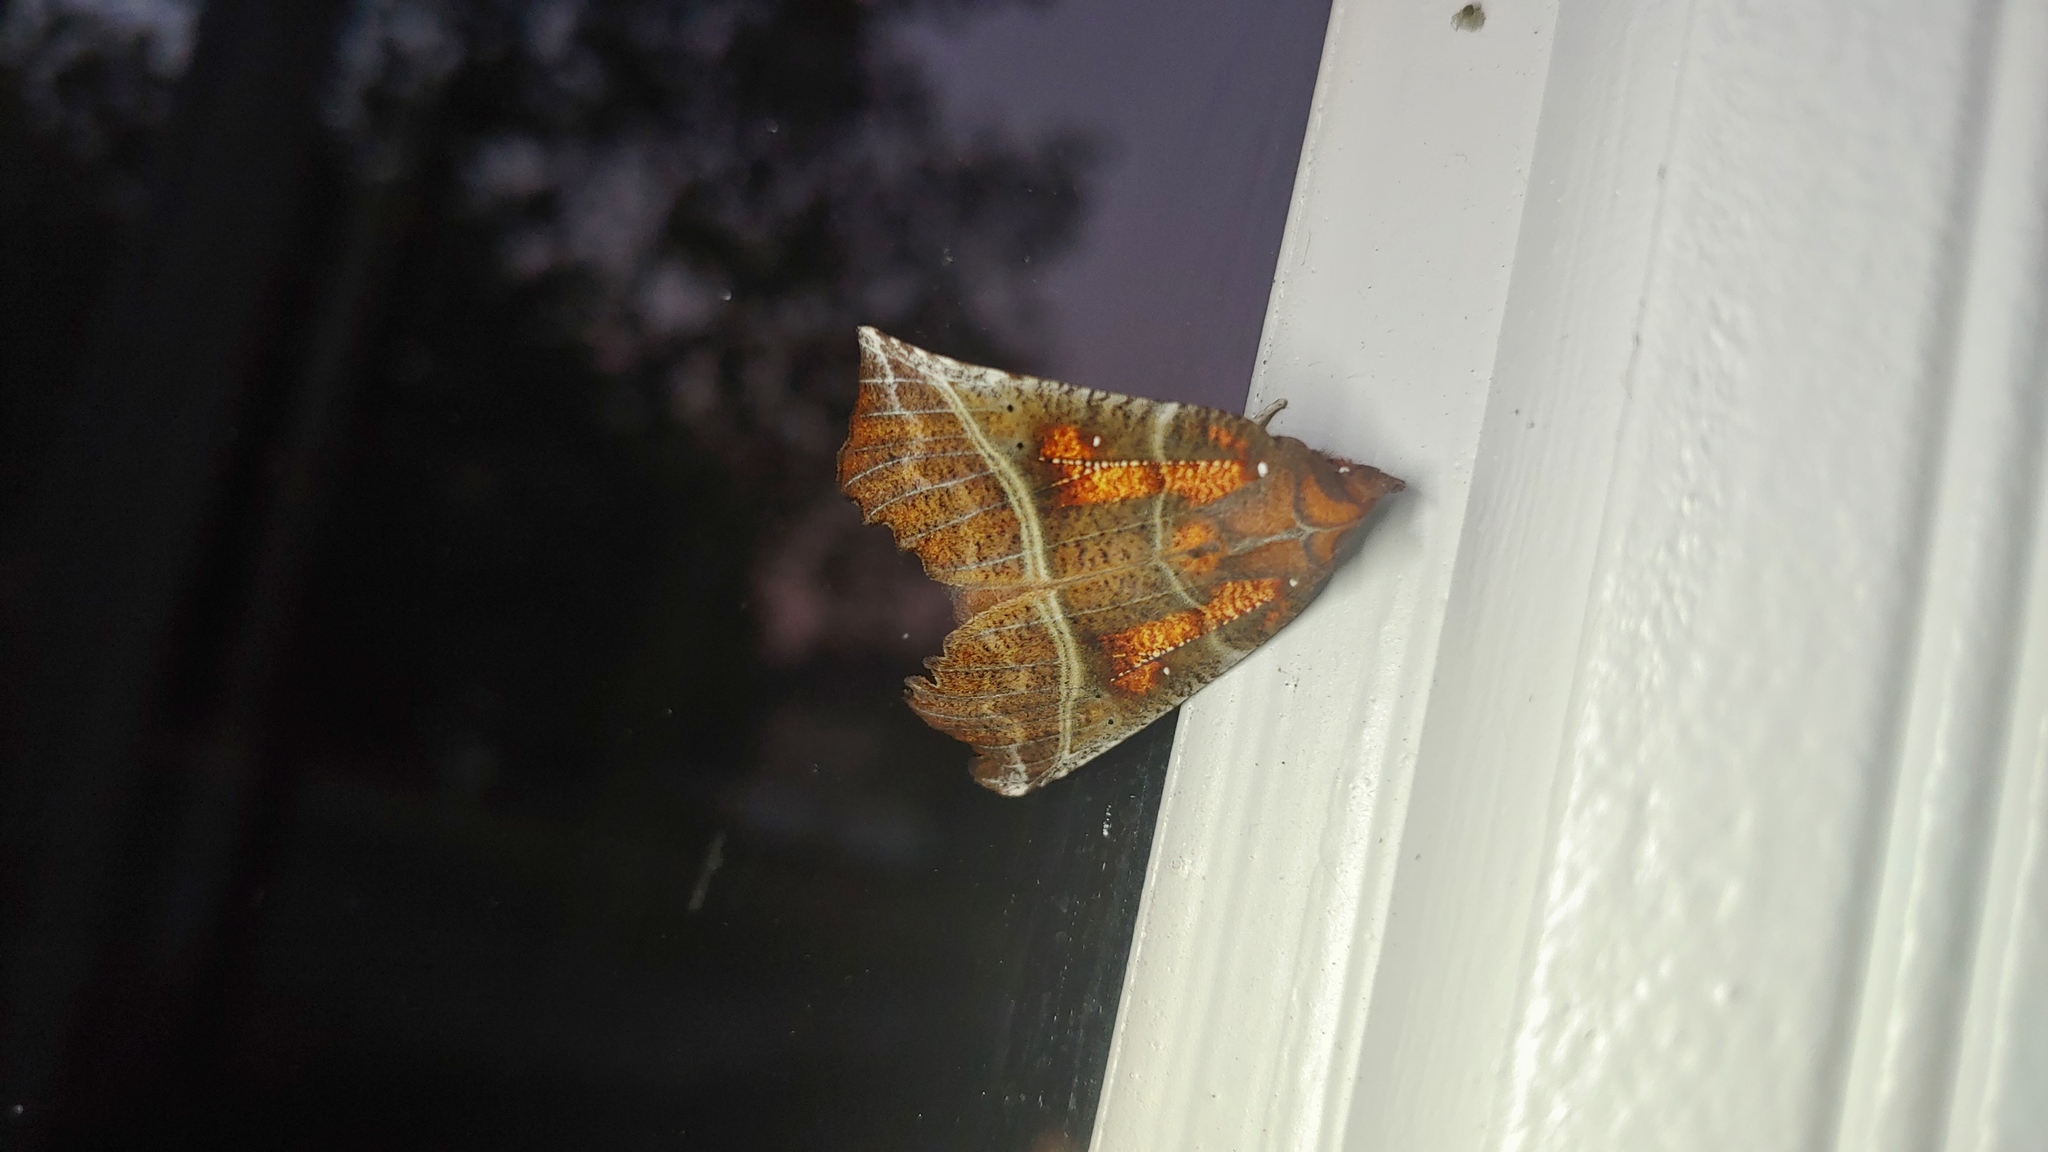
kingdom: Animalia
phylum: Arthropoda
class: Insecta
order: Lepidoptera
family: Erebidae
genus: Scoliopteryx
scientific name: Scoliopteryx libatrix
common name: Herald
